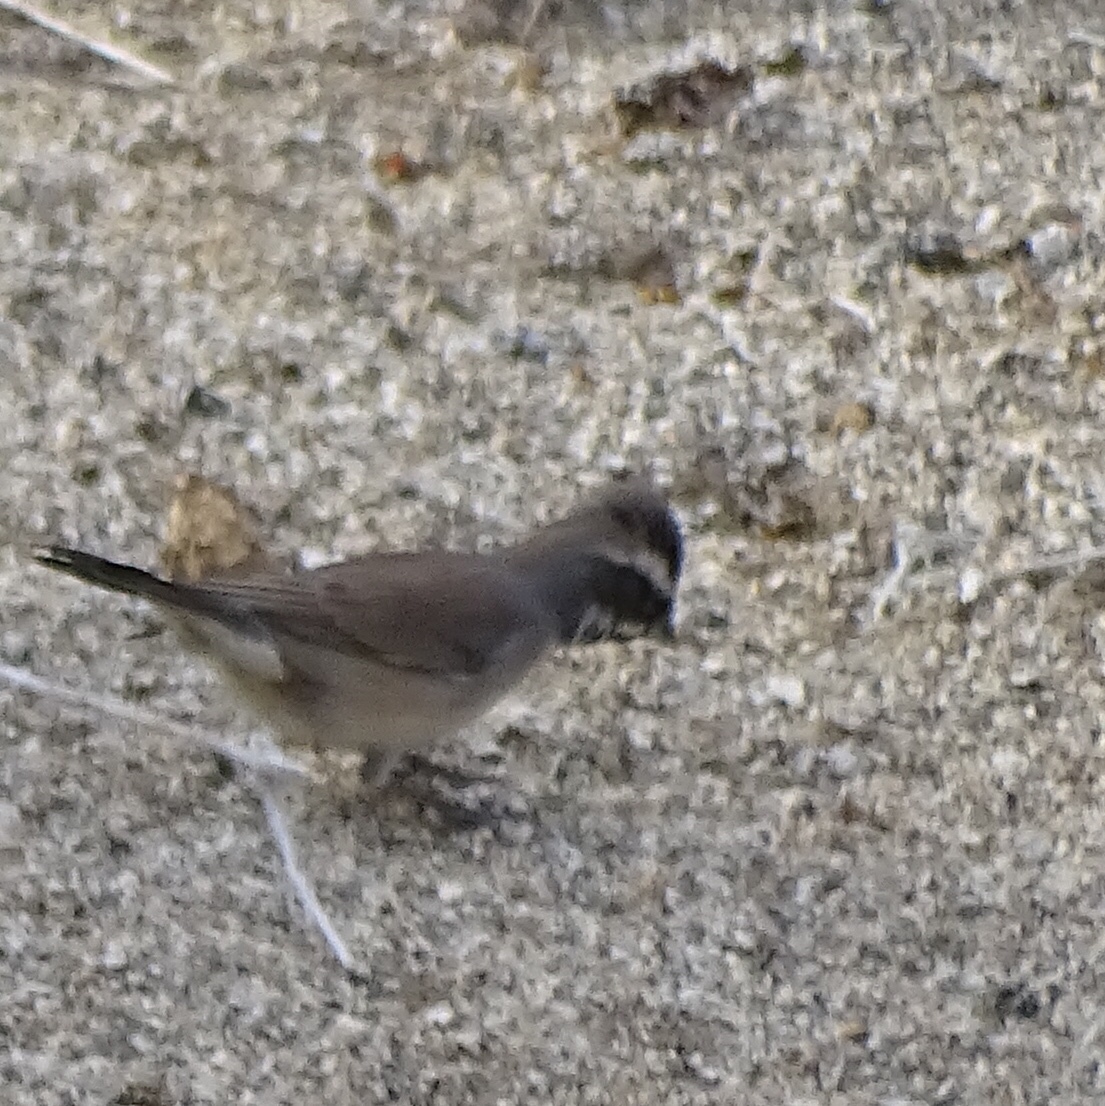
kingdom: Animalia
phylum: Chordata
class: Aves
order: Passeriformes
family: Passerellidae
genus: Amphispiza
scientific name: Amphispiza bilineata
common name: Black-throated sparrow
